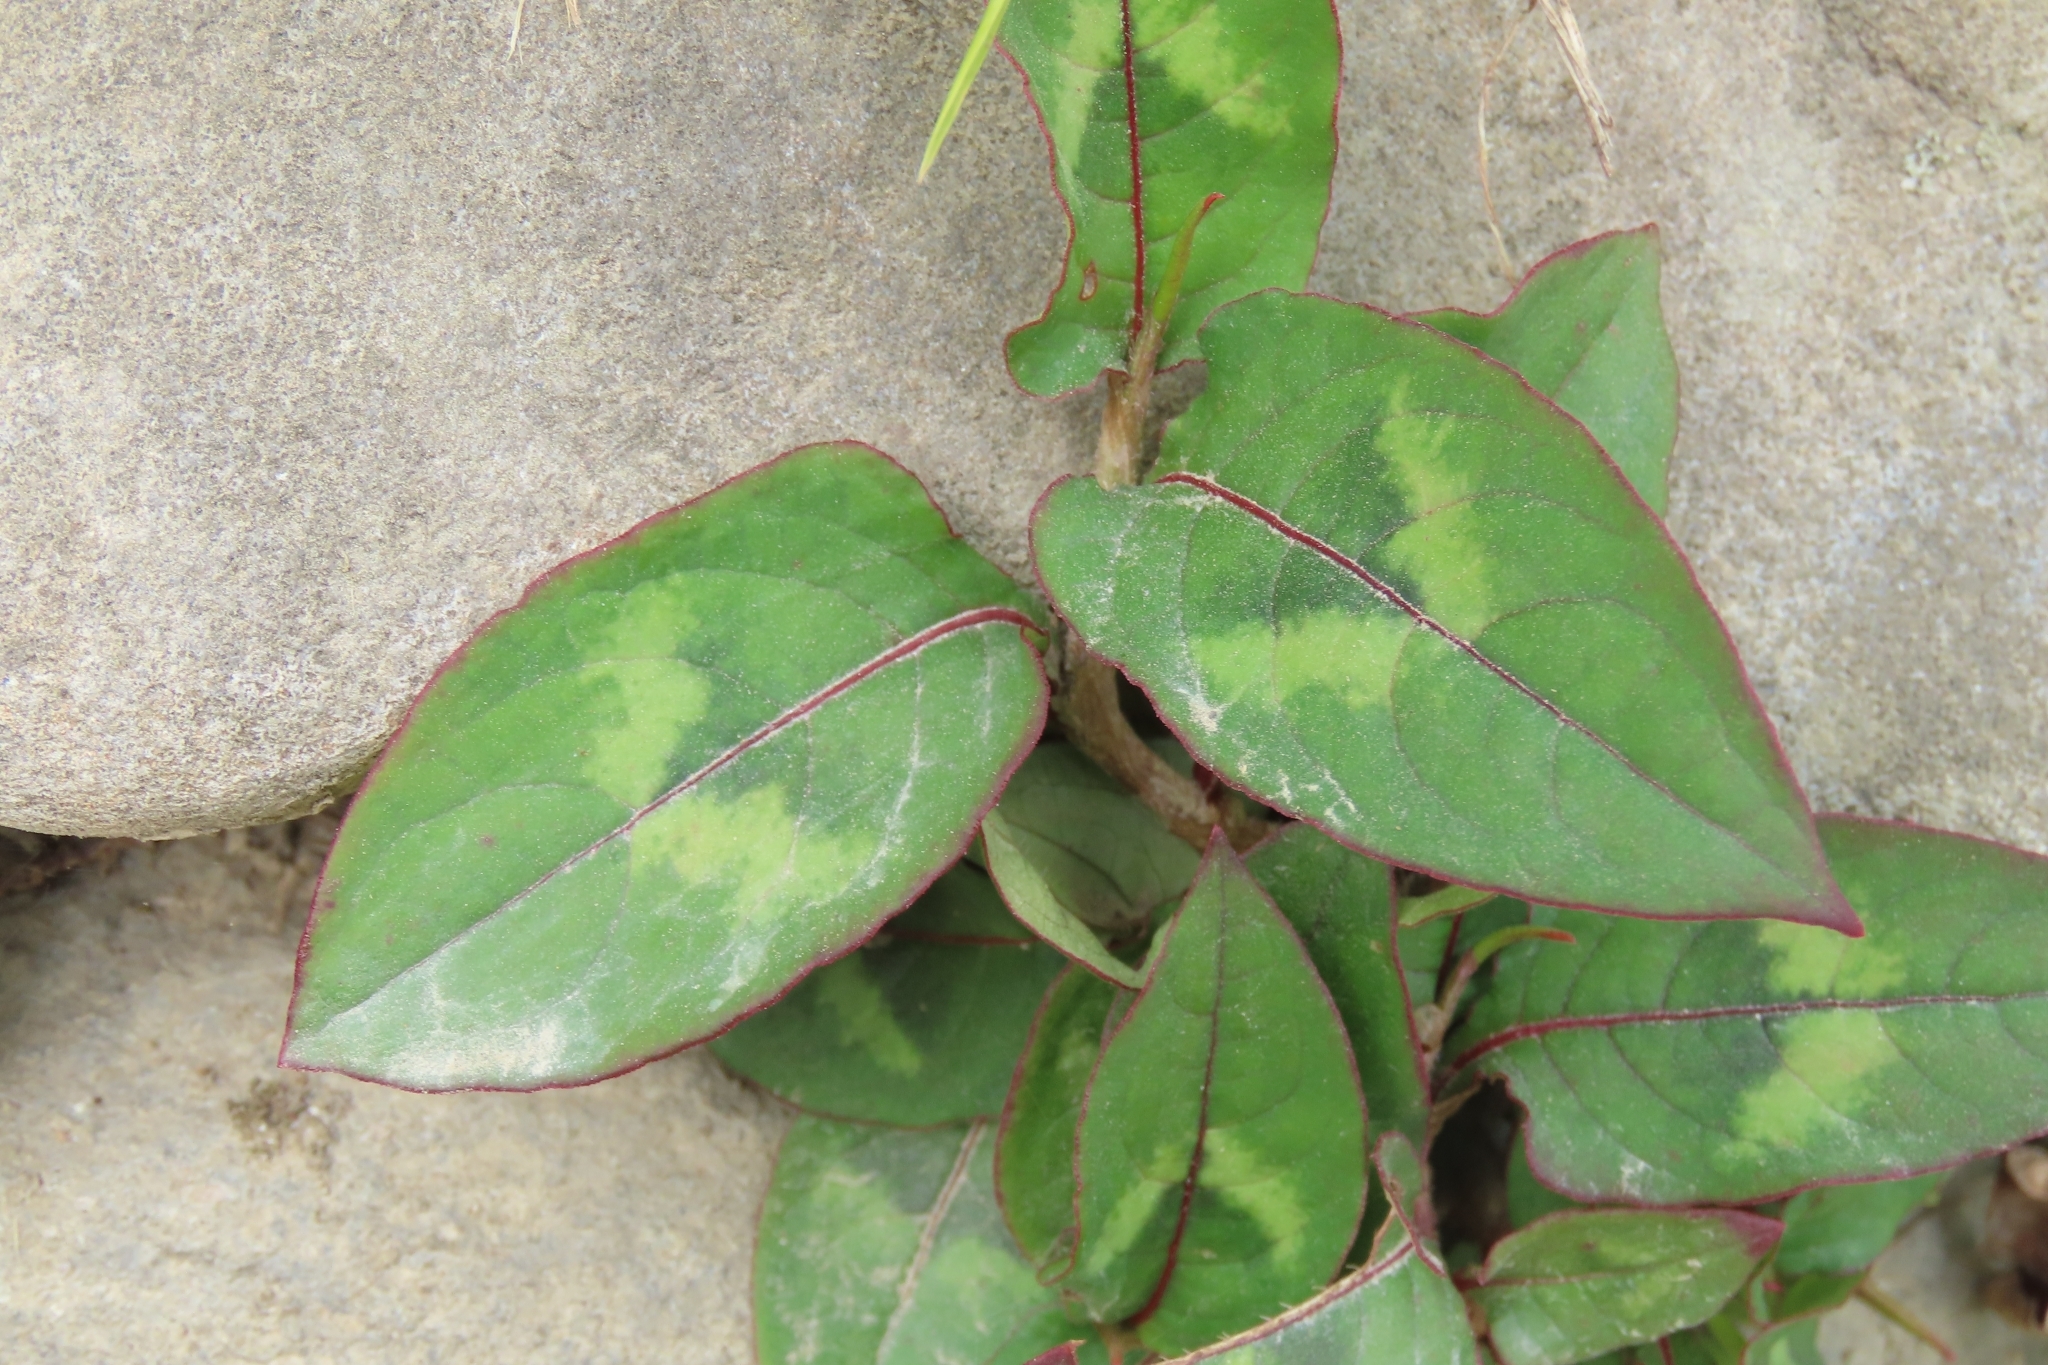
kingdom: Plantae
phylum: Tracheophyta
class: Magnoliopsida
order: Caryophyllales
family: Polygonaceae
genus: Persicaria
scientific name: Persicaria chinensis
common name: Chinese knotweed
